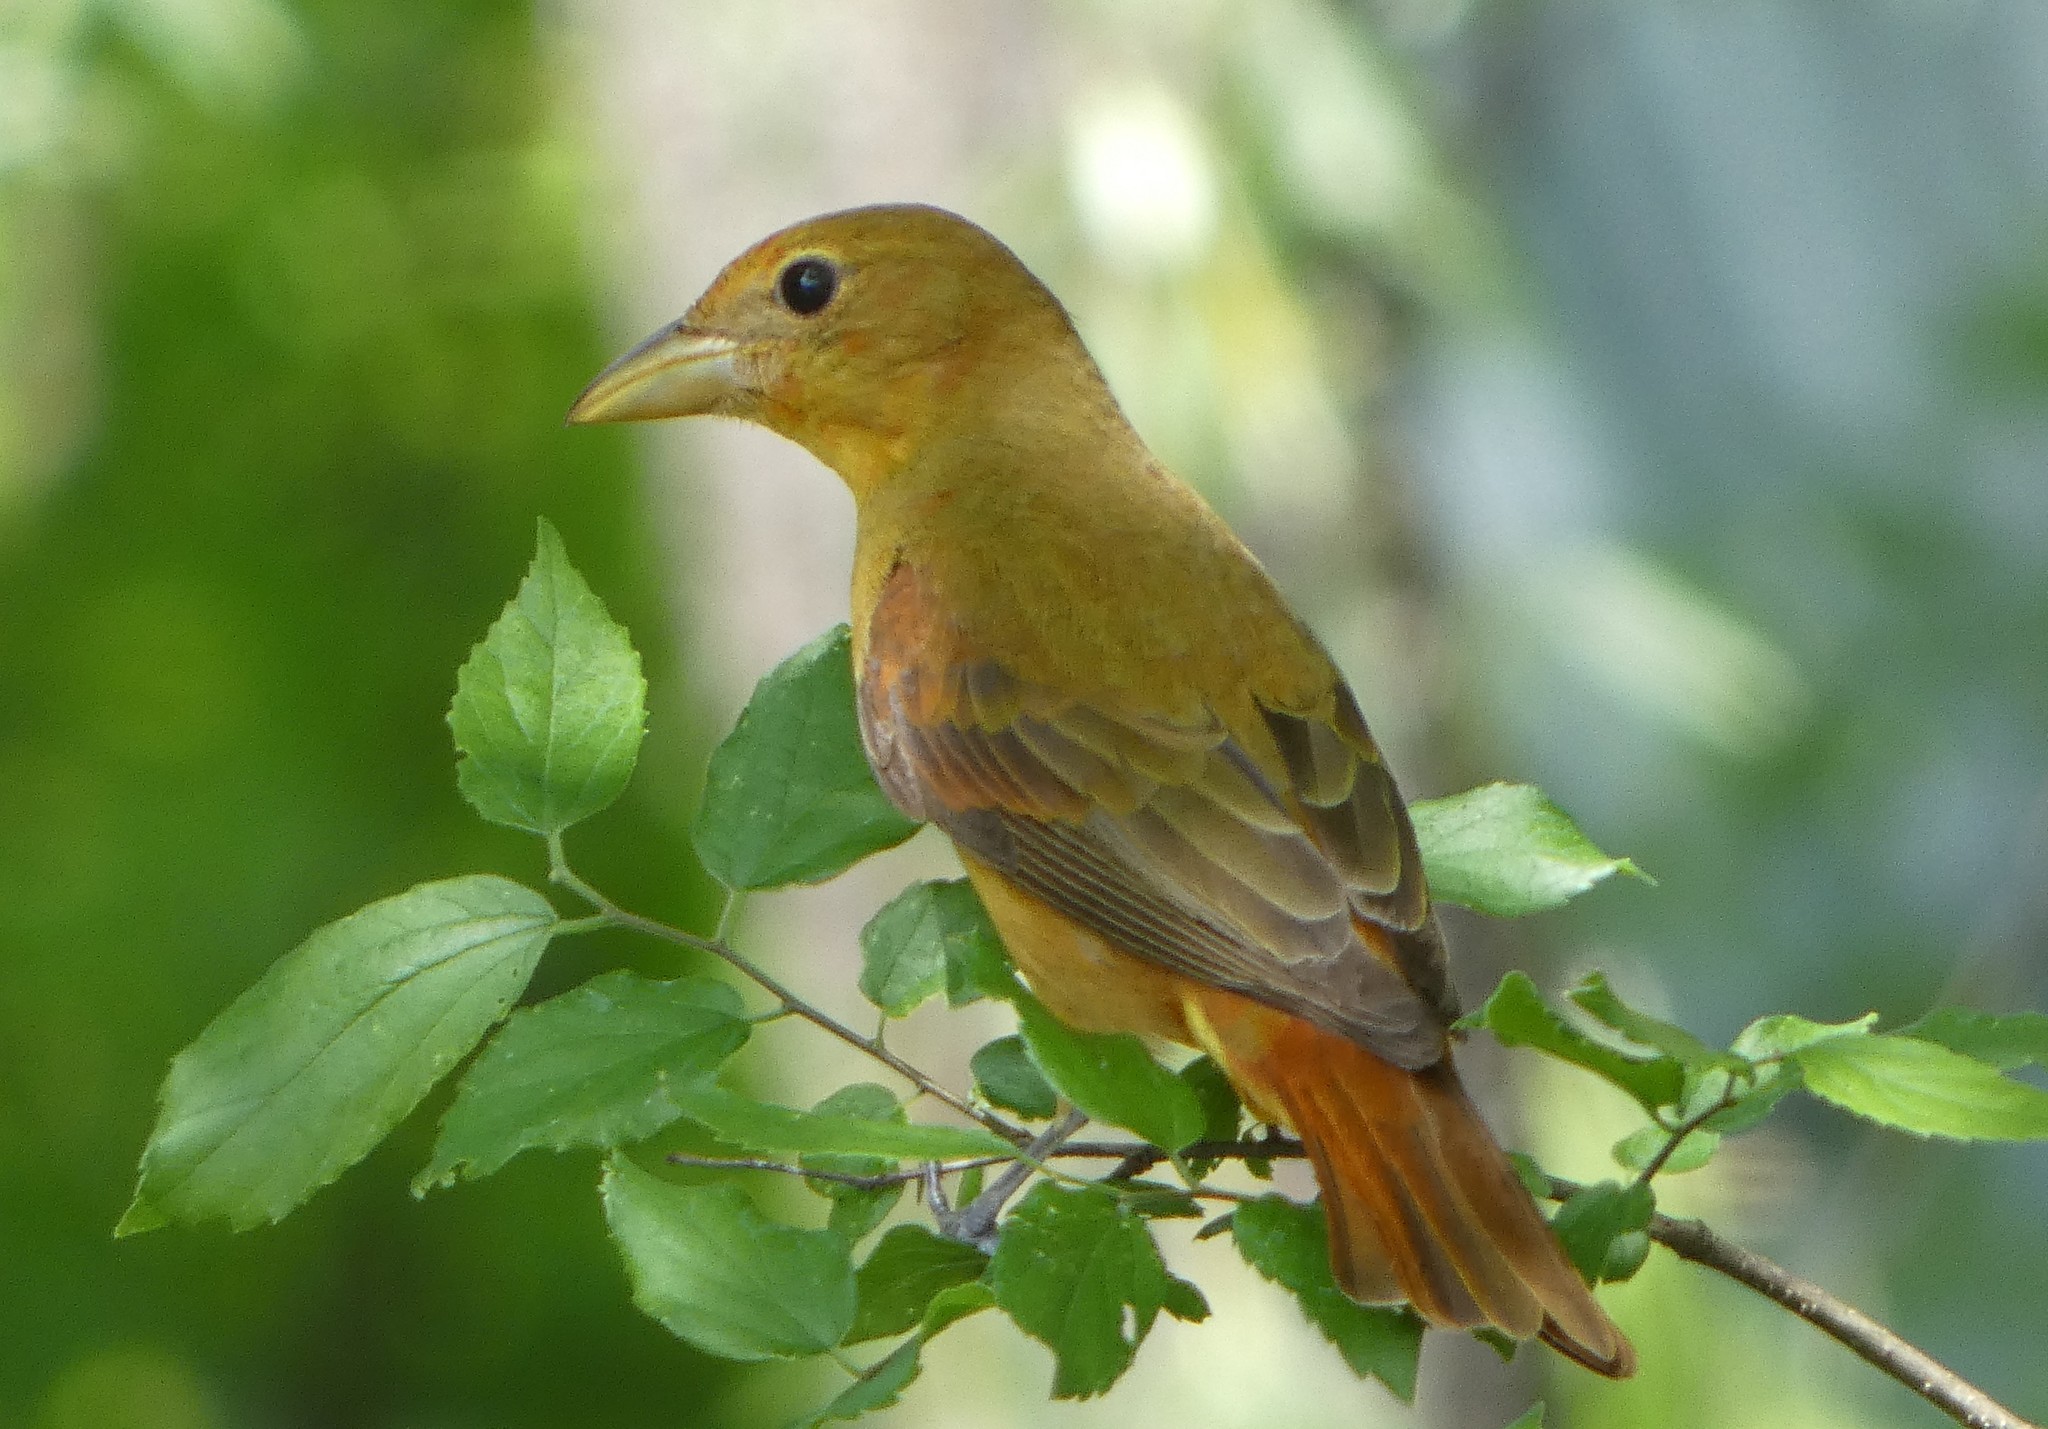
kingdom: Animalia
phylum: Chordata
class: Aves
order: Passeriformes
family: Cardinalidae
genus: Piranga
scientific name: Piranga rubra
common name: Summer tanager
